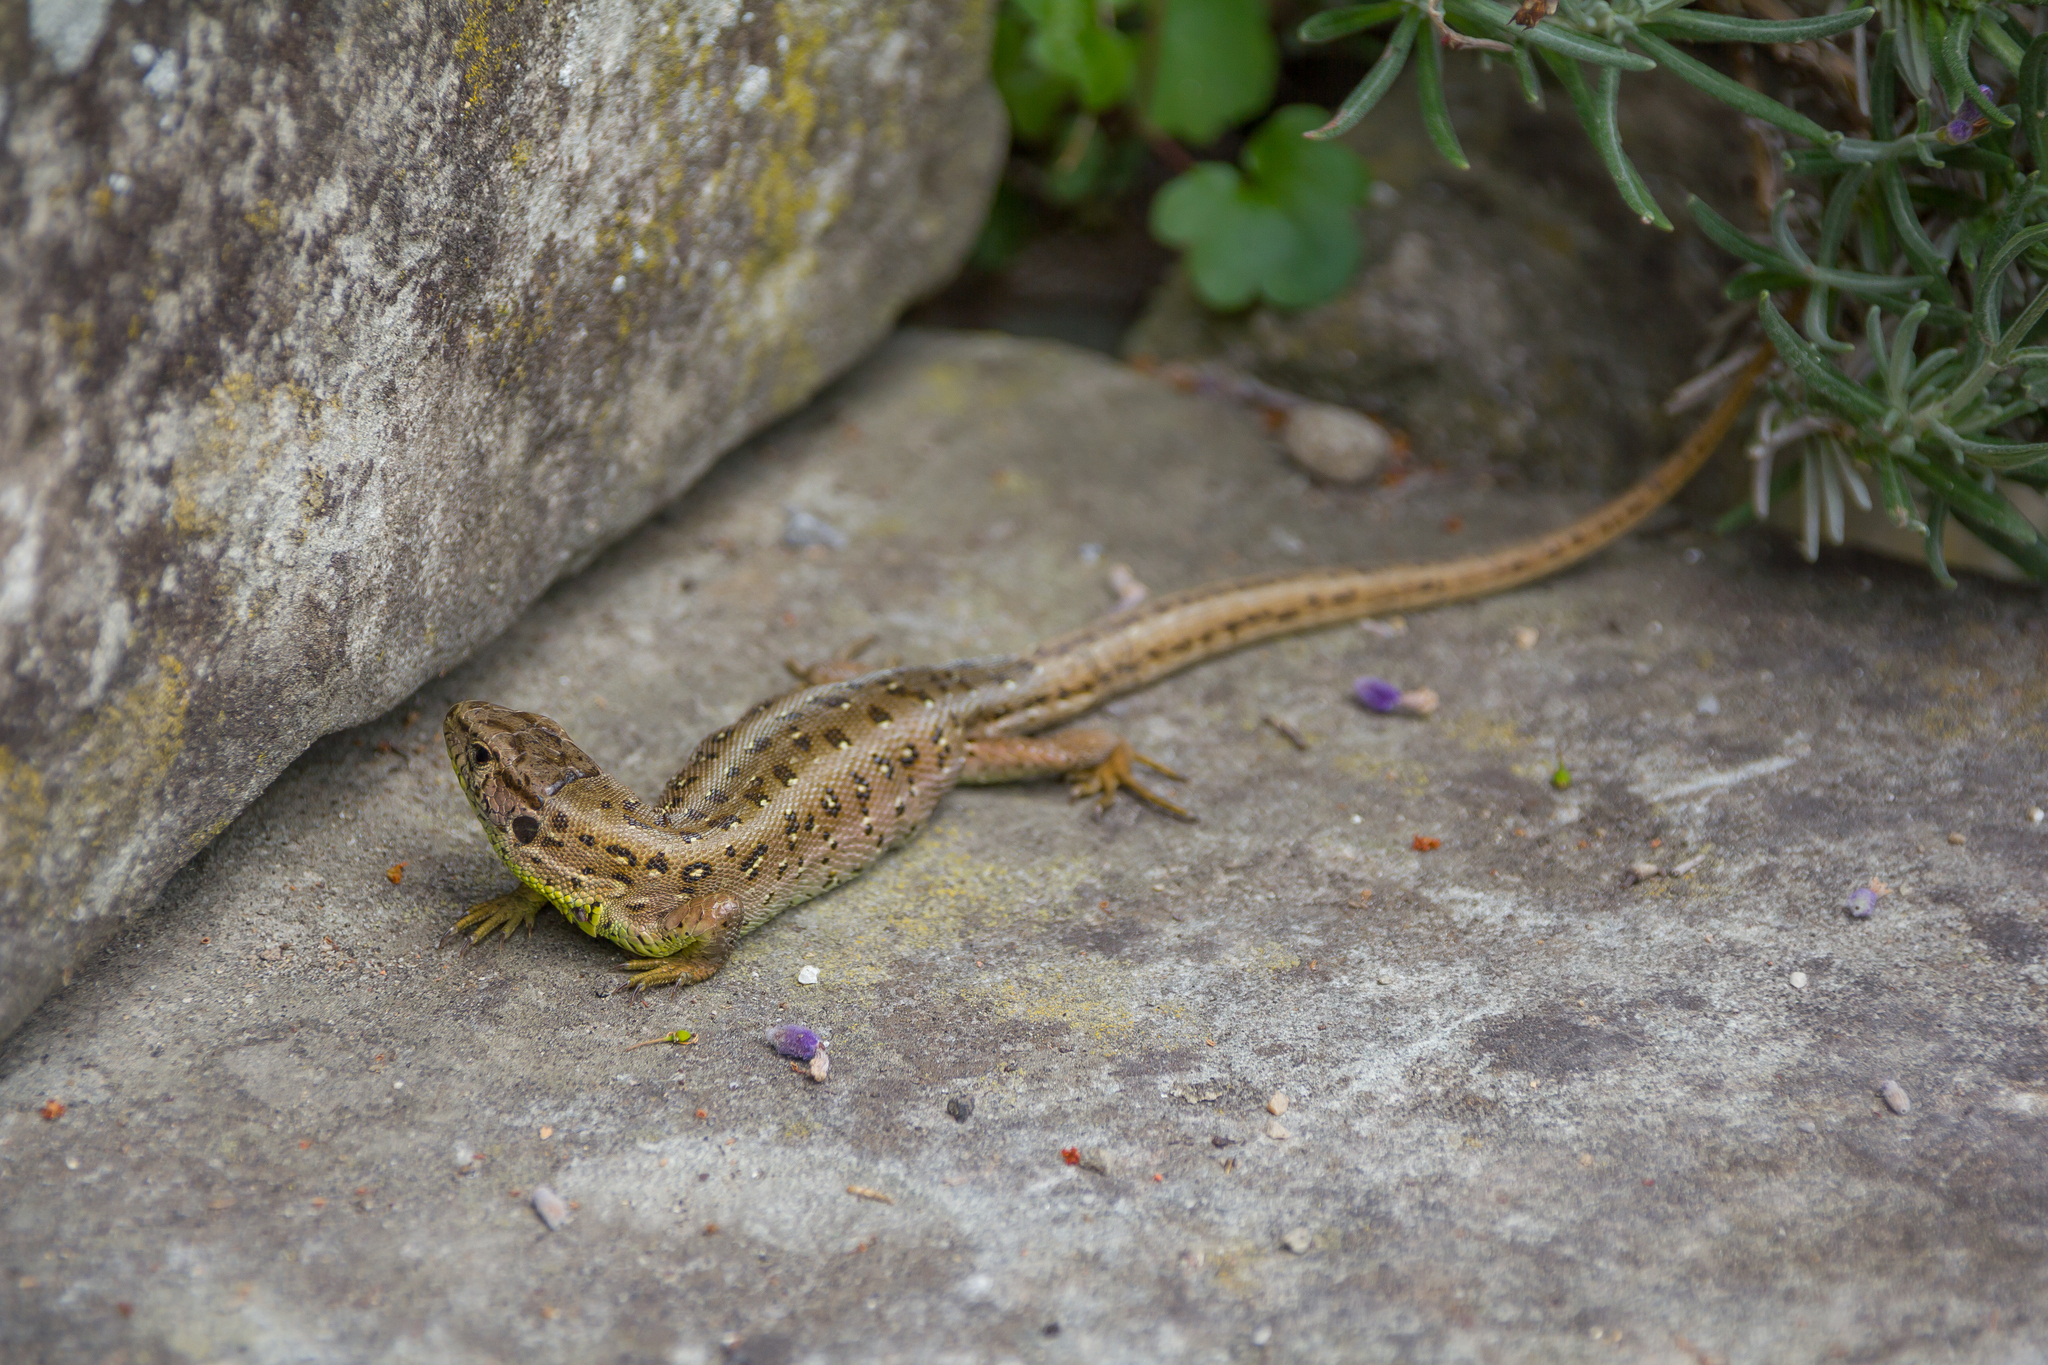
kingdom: Animalia
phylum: Chordata
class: Squamata
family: Lacertidae
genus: Lacerta
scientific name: Lacerta agilis
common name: Sand lizard
